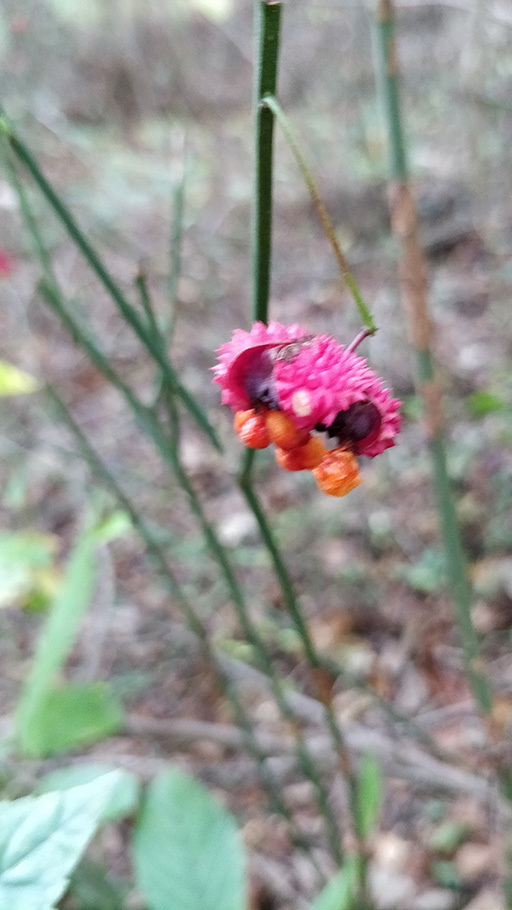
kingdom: Plantae
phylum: Tracheophyta
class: Magnoliopsida
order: Celastrales
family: Celastraceae
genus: Euonymus
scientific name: Euonymus americanus
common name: Bursting-heart
